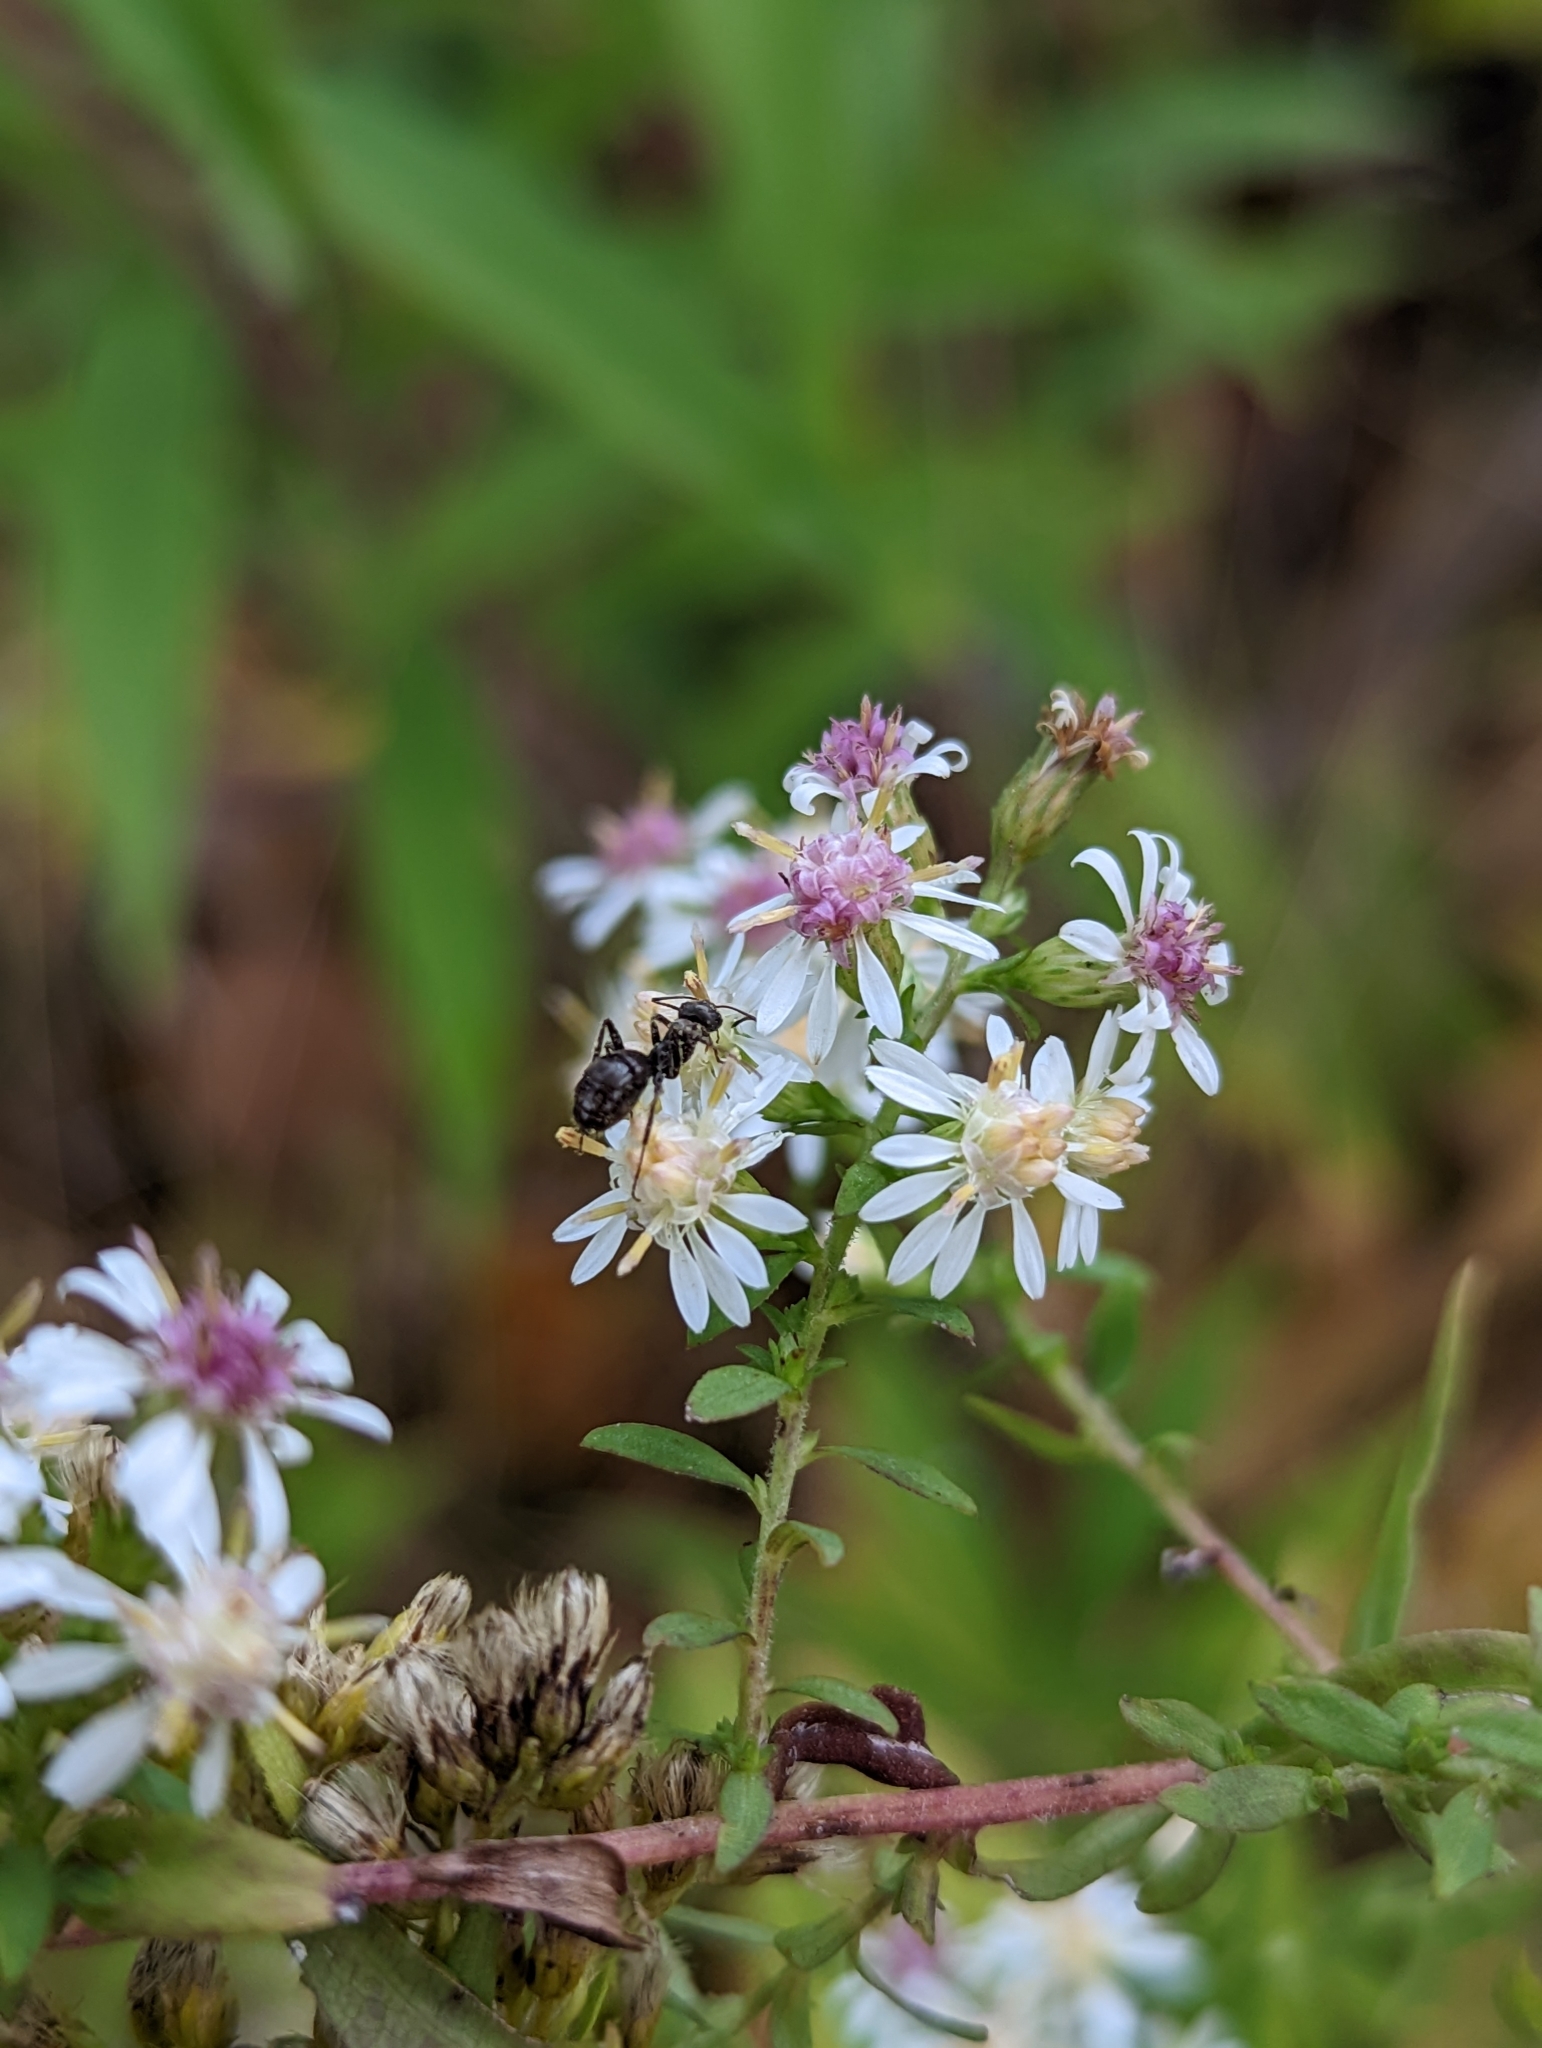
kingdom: Plantae
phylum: Tracheophyta
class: Magnoliopsida
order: Asterales
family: Asteraceae
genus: Symphyotrichum
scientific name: Symphyotrichum lateriflorum
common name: Calico aster
